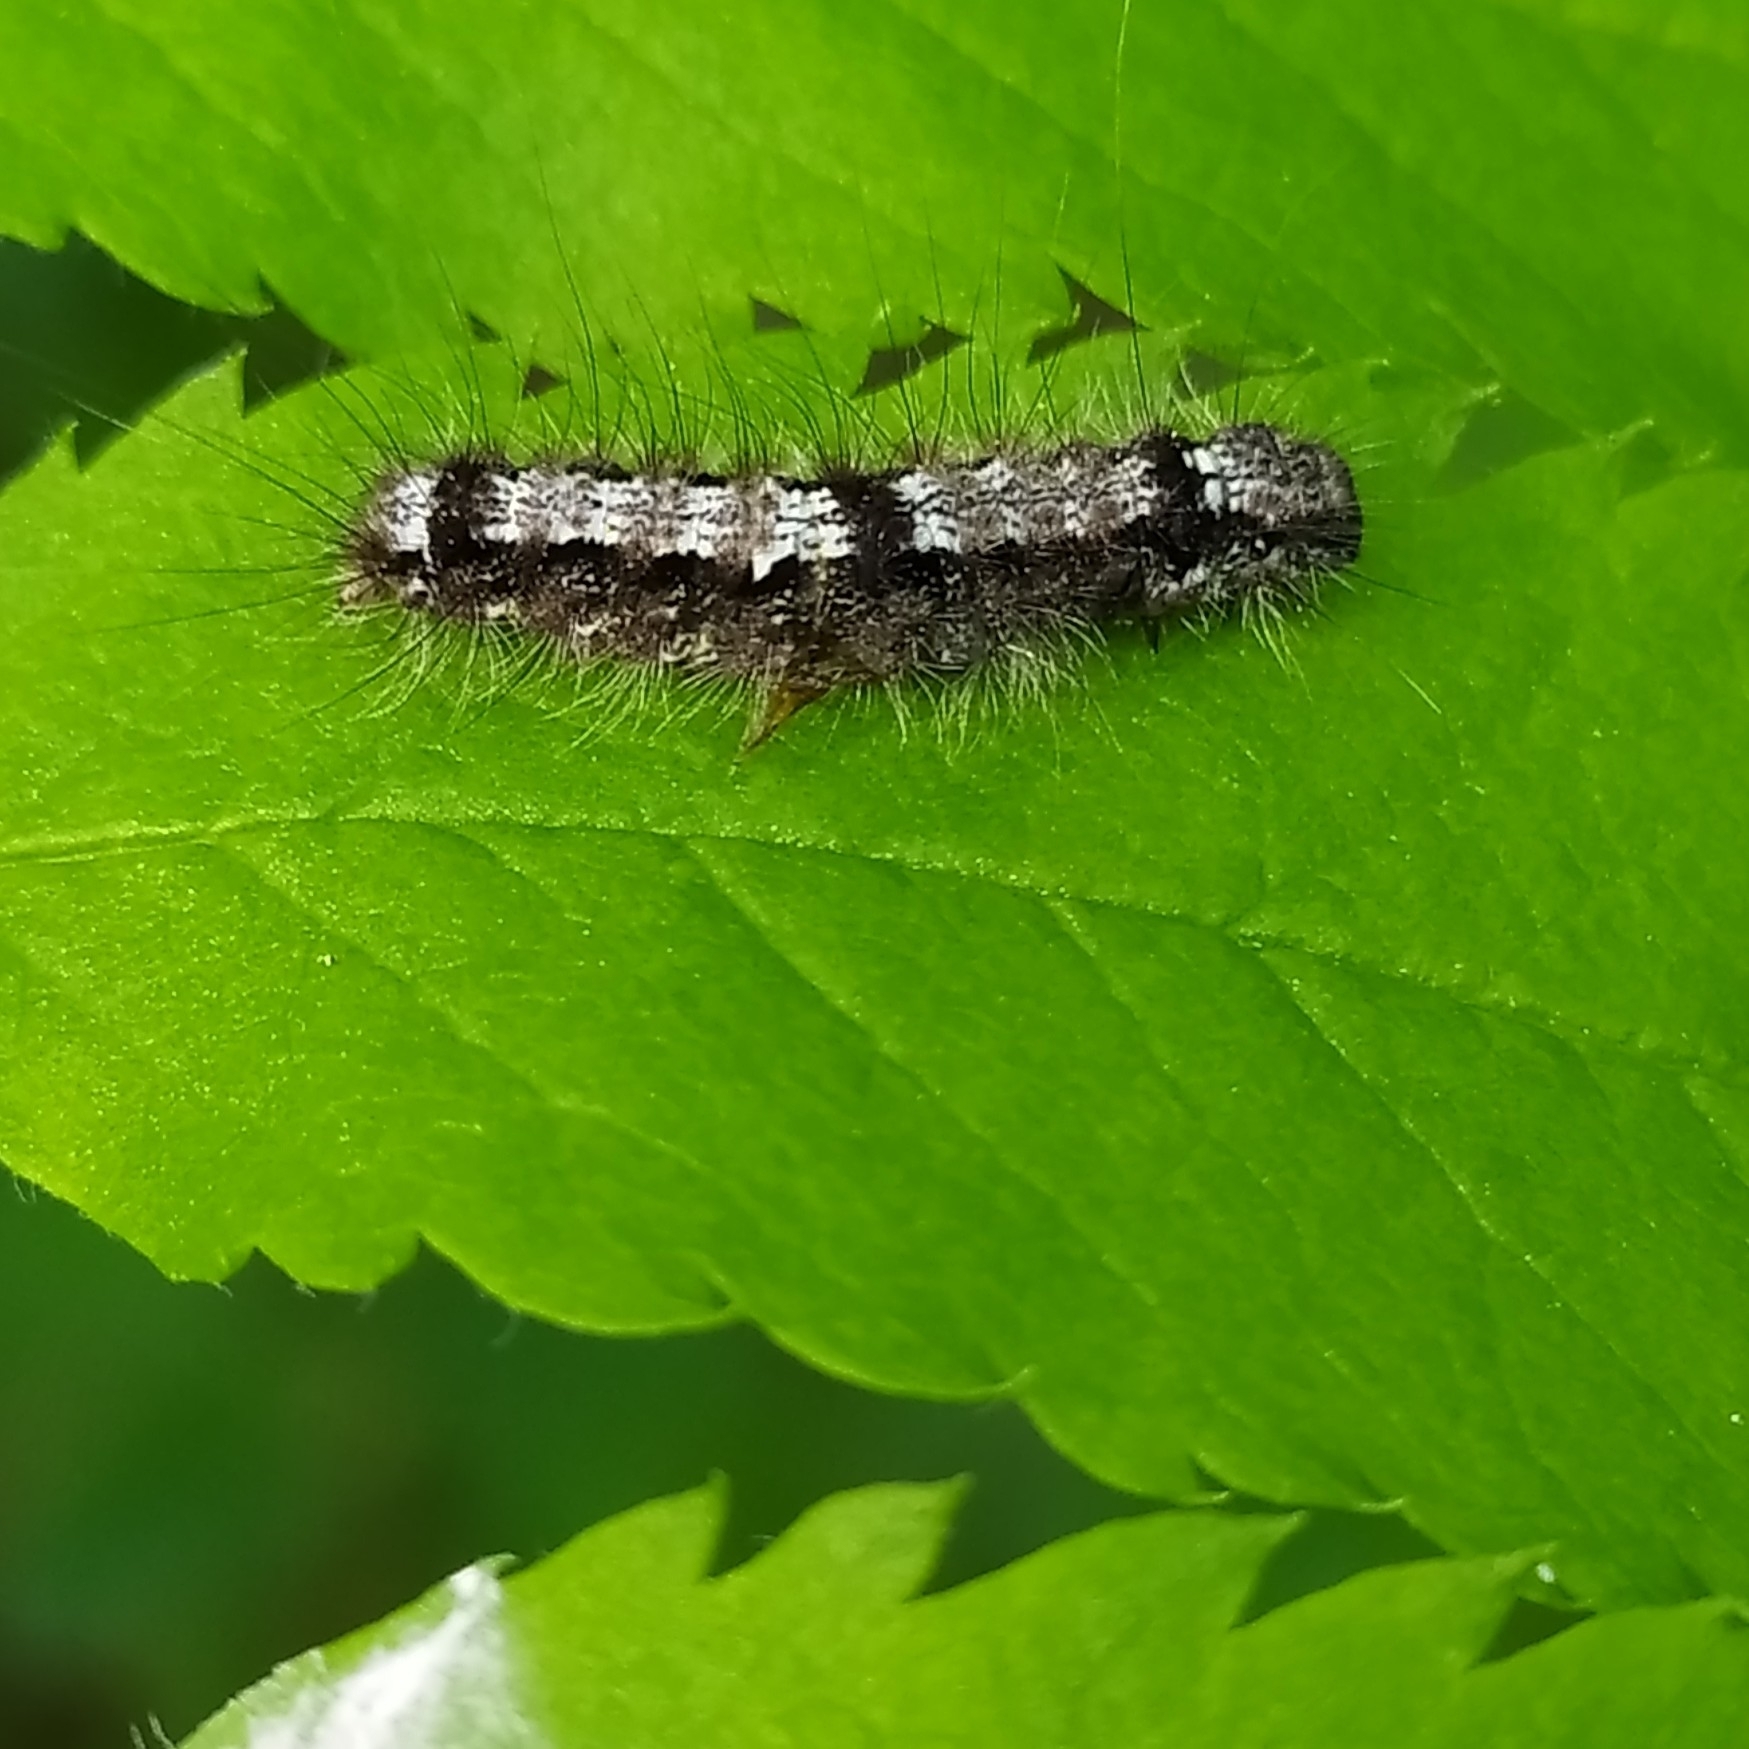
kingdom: Animalia
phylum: Arthropoda
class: Insecta
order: Lepidoptera
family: Erebidae
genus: Katha
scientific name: Katha depressa
